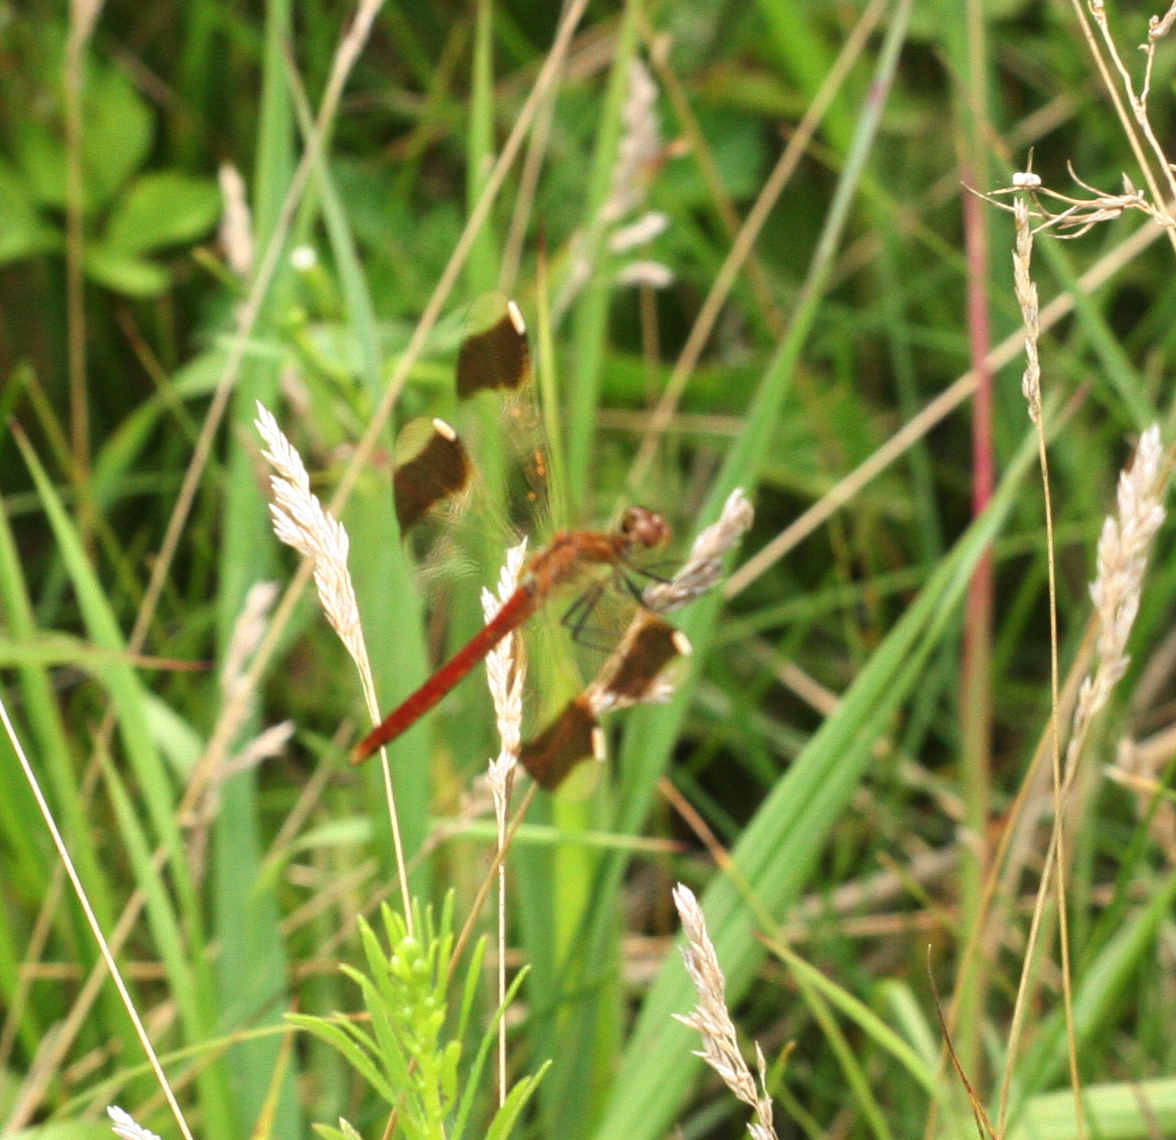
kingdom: Animalia
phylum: Arthropoda
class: Insecta
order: Odonata
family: Libellulidae
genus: Sympetrum
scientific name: Sympetrum pedemontanum
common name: Banded darter
